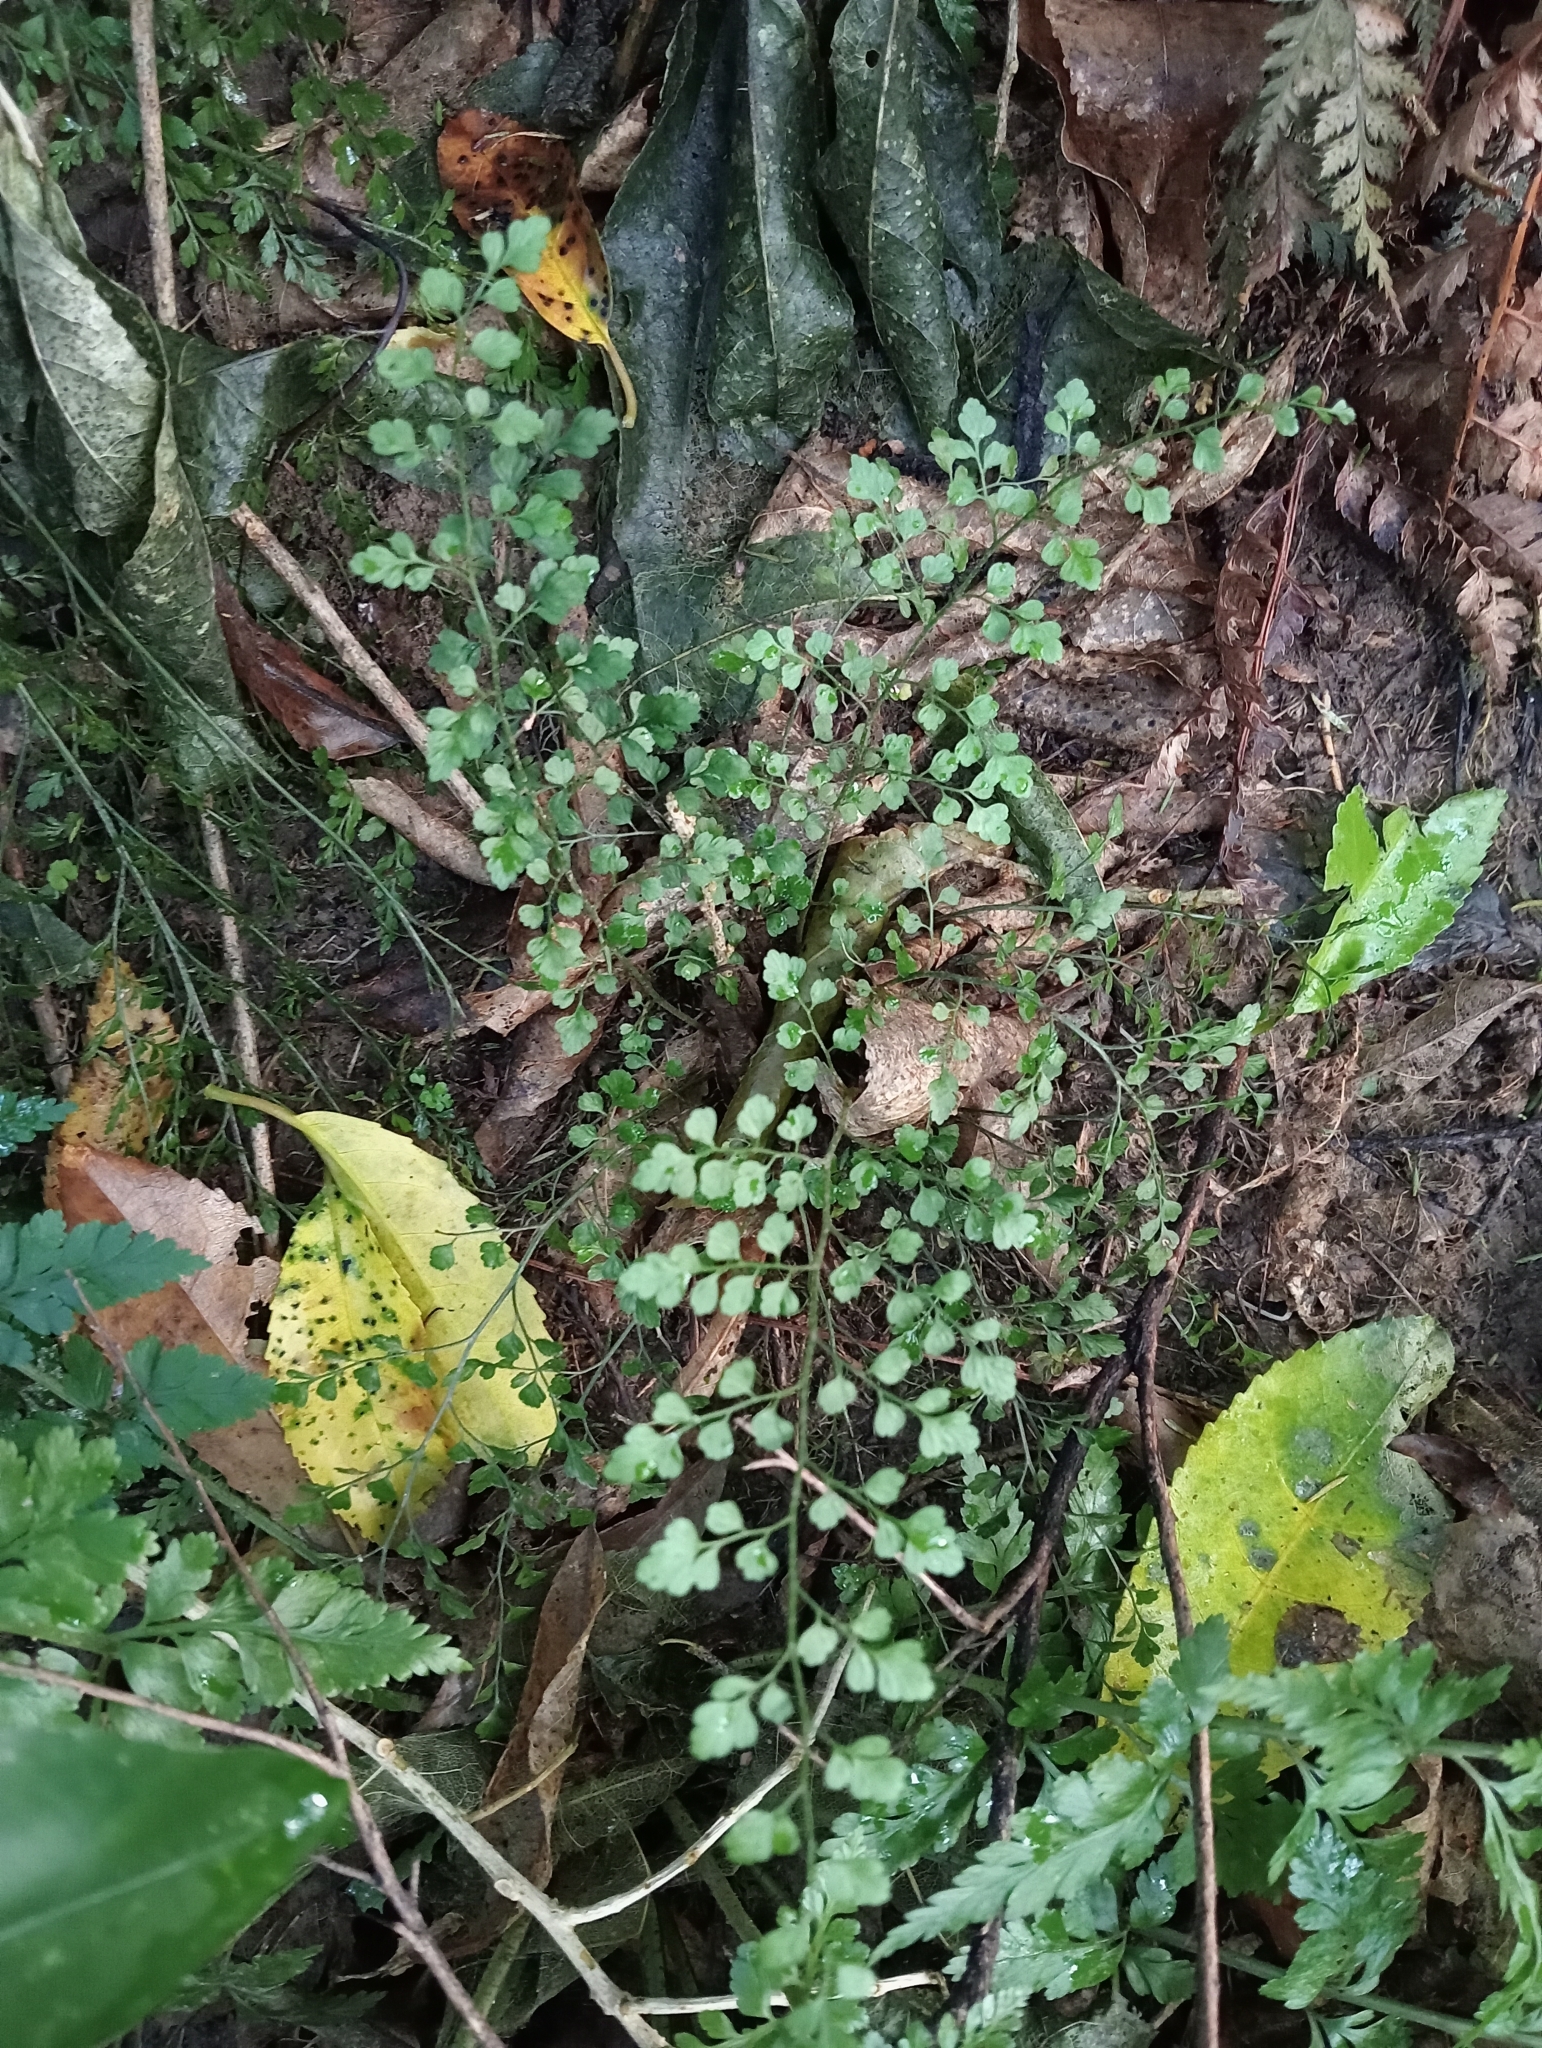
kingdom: Plantae
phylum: Tracheophyta
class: Polypodiopsida
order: Polypodiales
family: Aspleniaceae
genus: Asplenium
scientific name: Asplenium hookerianum
